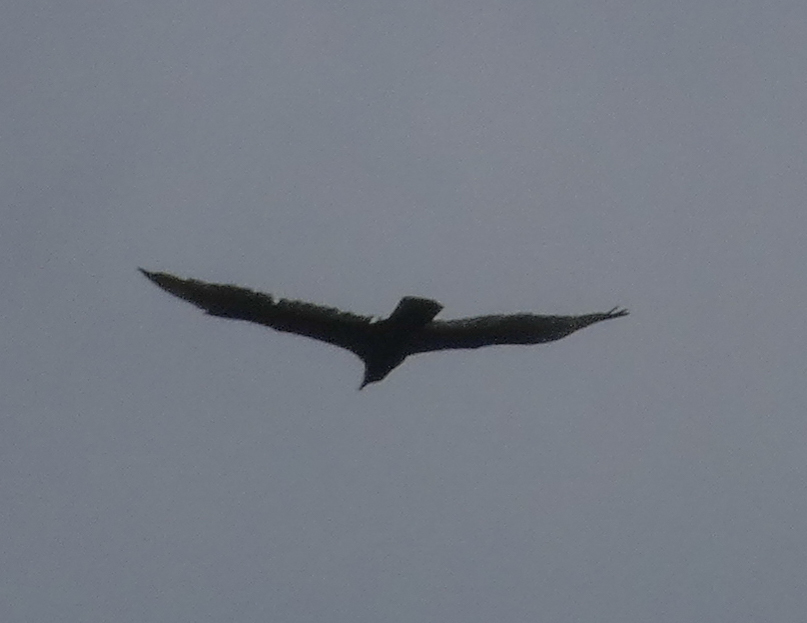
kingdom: Animalia
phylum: Chordata
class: Aves
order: Accipitriformes
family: Cathartidae
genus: Cathartes
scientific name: Cathartes aura
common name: Turkey vulture
